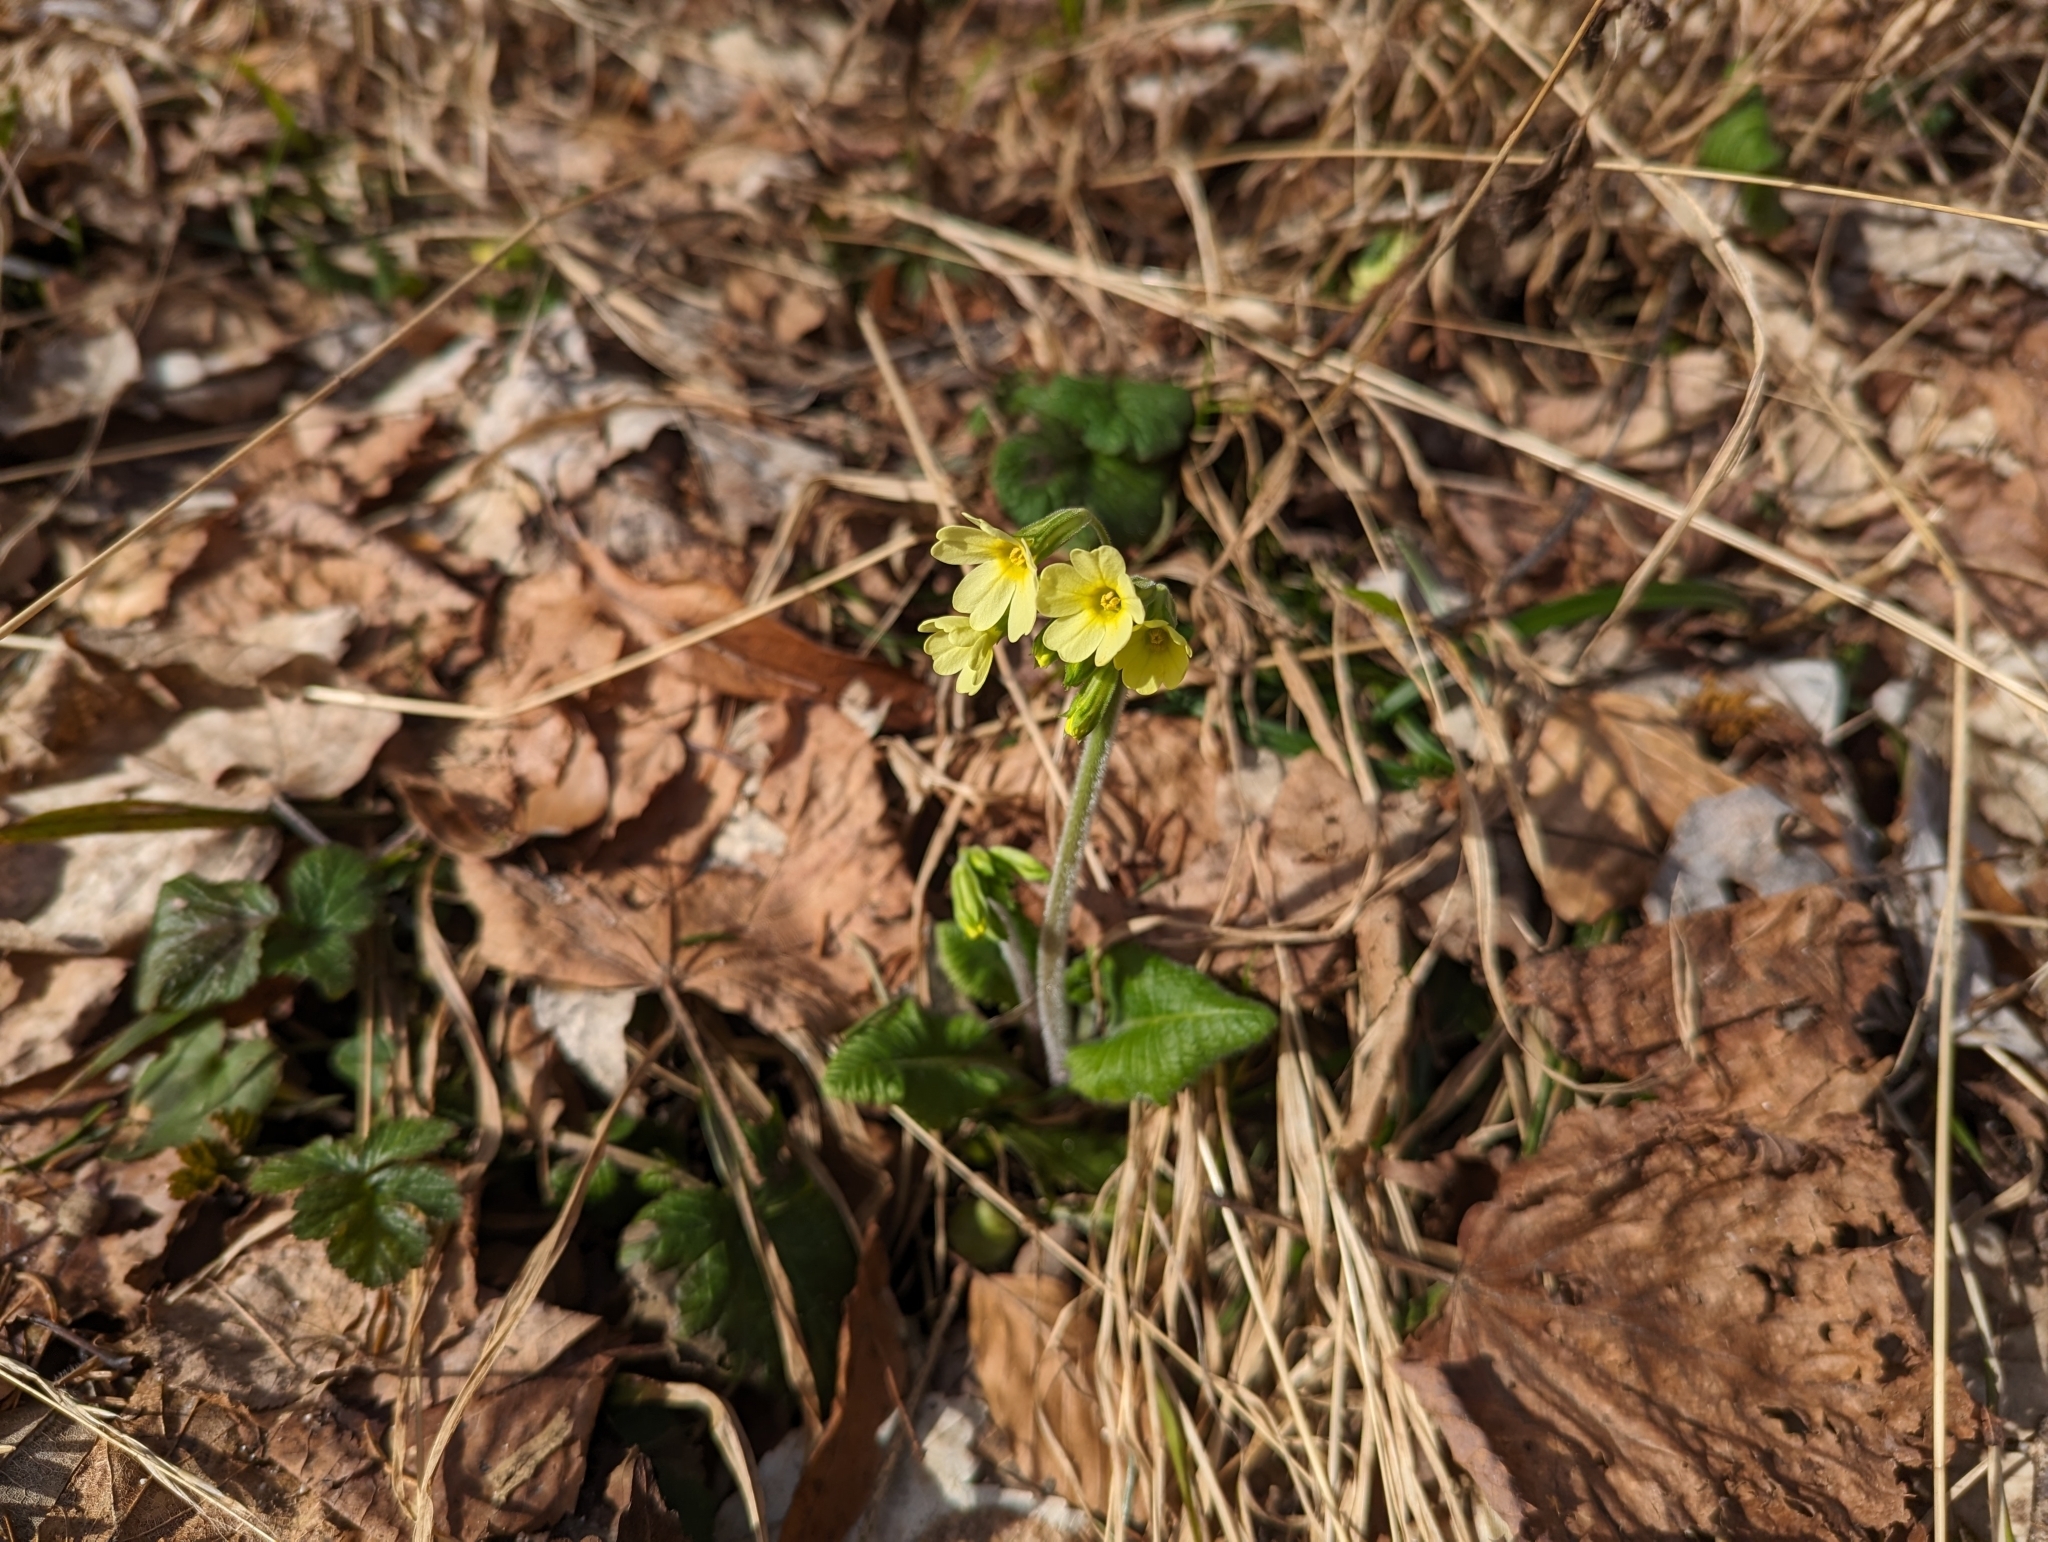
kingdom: Plantae
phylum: Tracheophyta
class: Magnoliopsida
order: Ericales
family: Primulaceae
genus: Primula
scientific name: Primula elatior
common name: Oxlip
